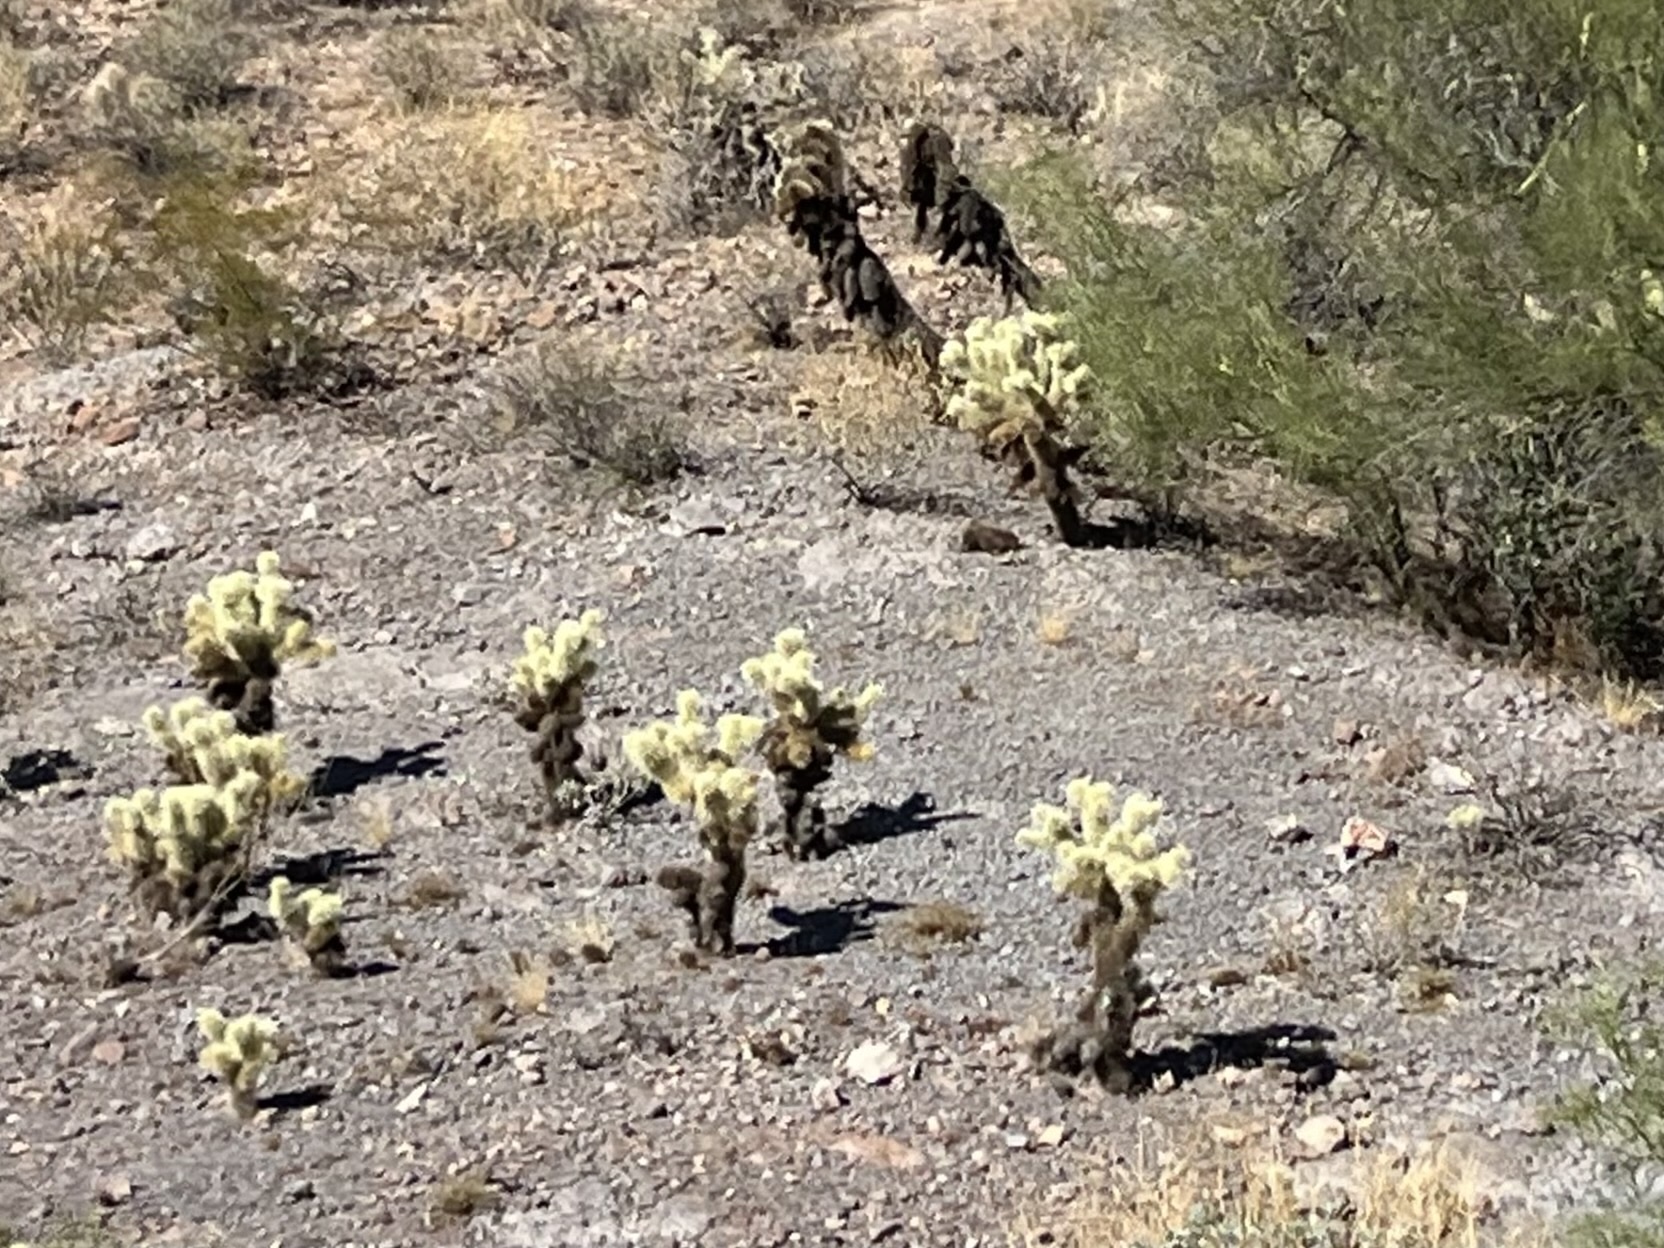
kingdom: Plantae
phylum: Tracheophyta
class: Magnoliopsida
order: Caryophyllales
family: Cactaceae
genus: Cylindropuntia
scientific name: Cylindropuntia fosbergii
